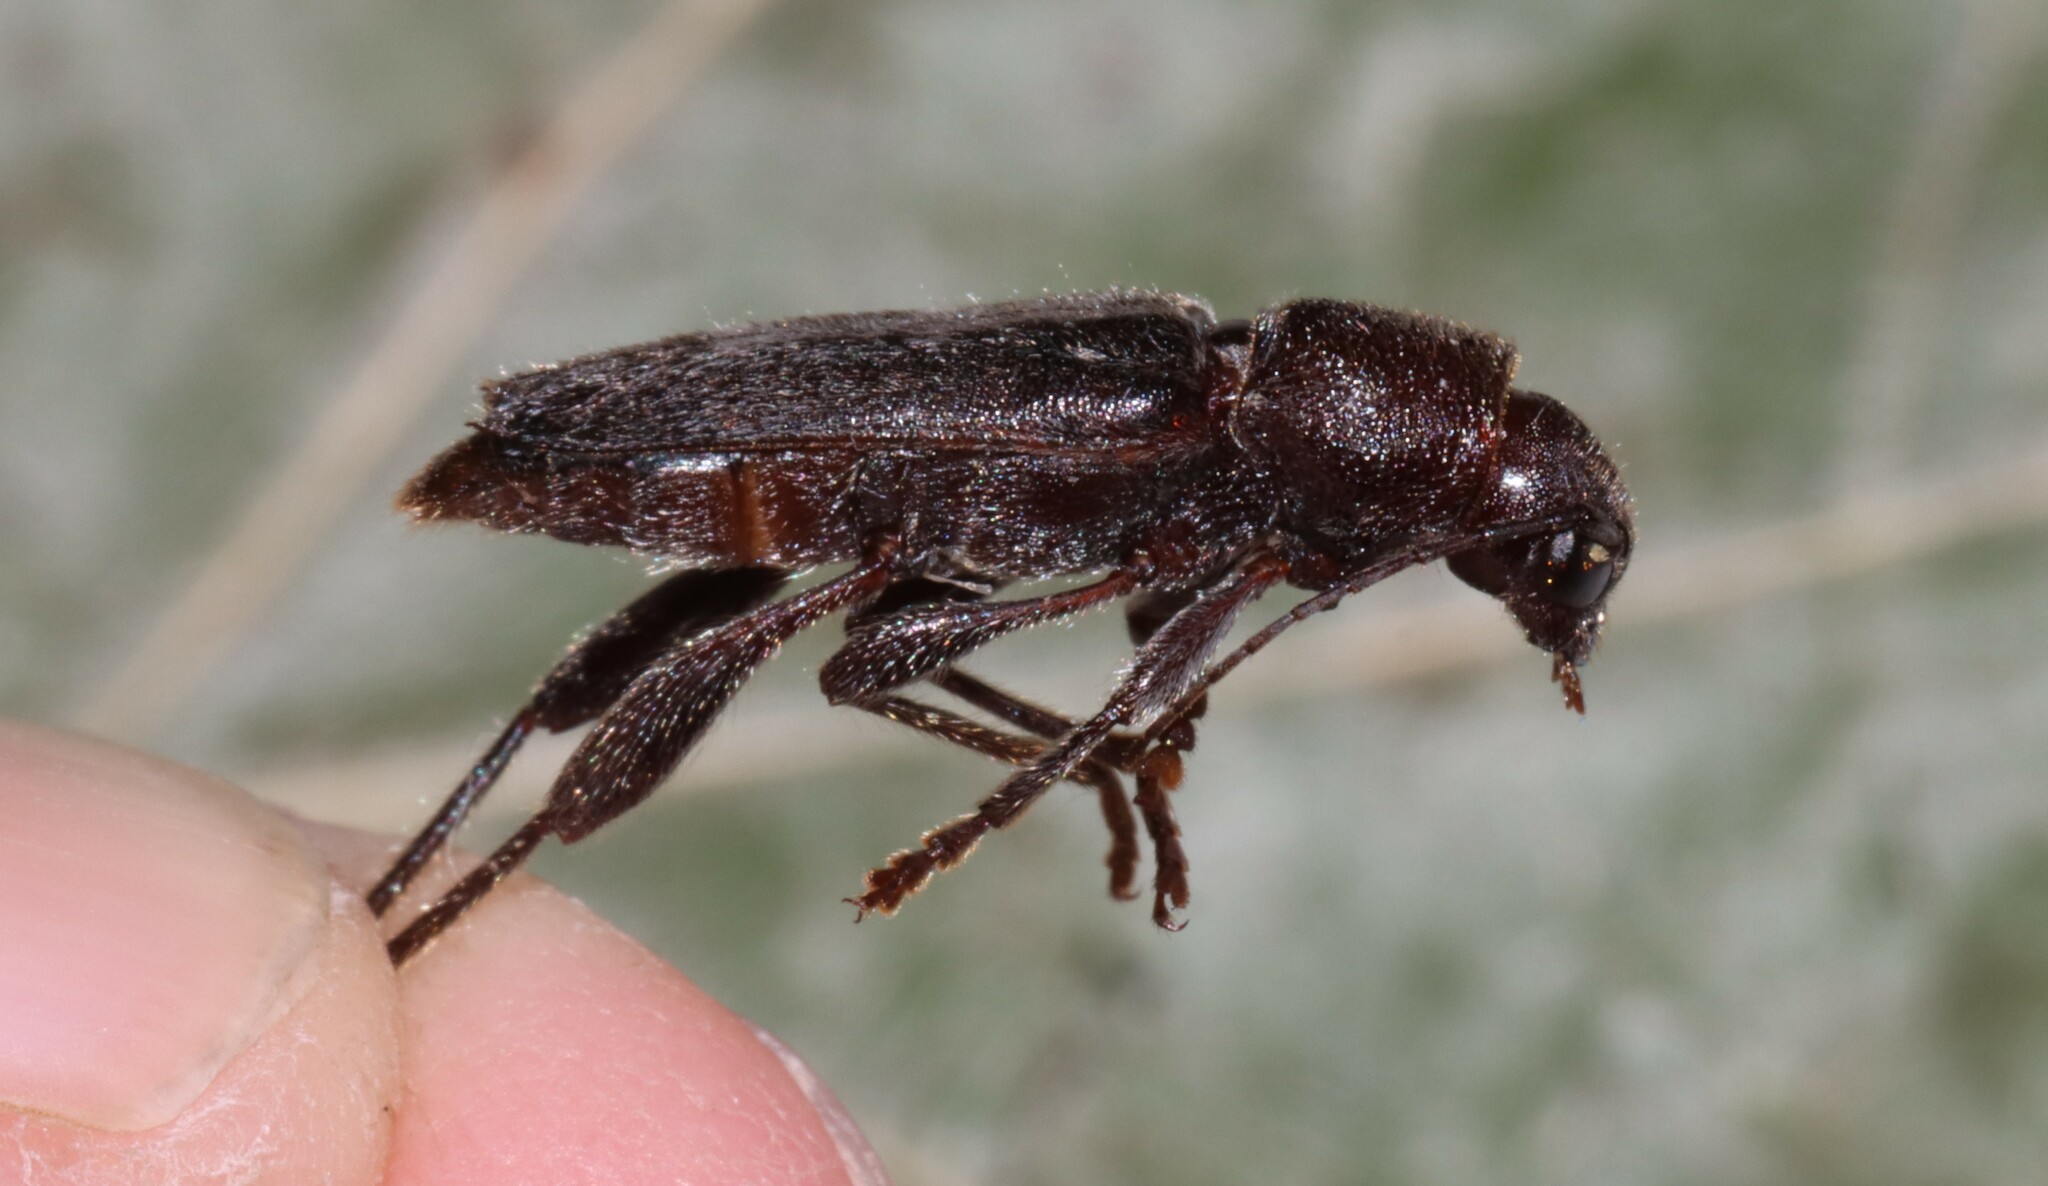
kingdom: Animalia
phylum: Arthropoda
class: Insecta
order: Coleoptera
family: Cerambycidae
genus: Xylotrechus
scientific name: Xylotrechus sagittatus
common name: Arrowhead borer
